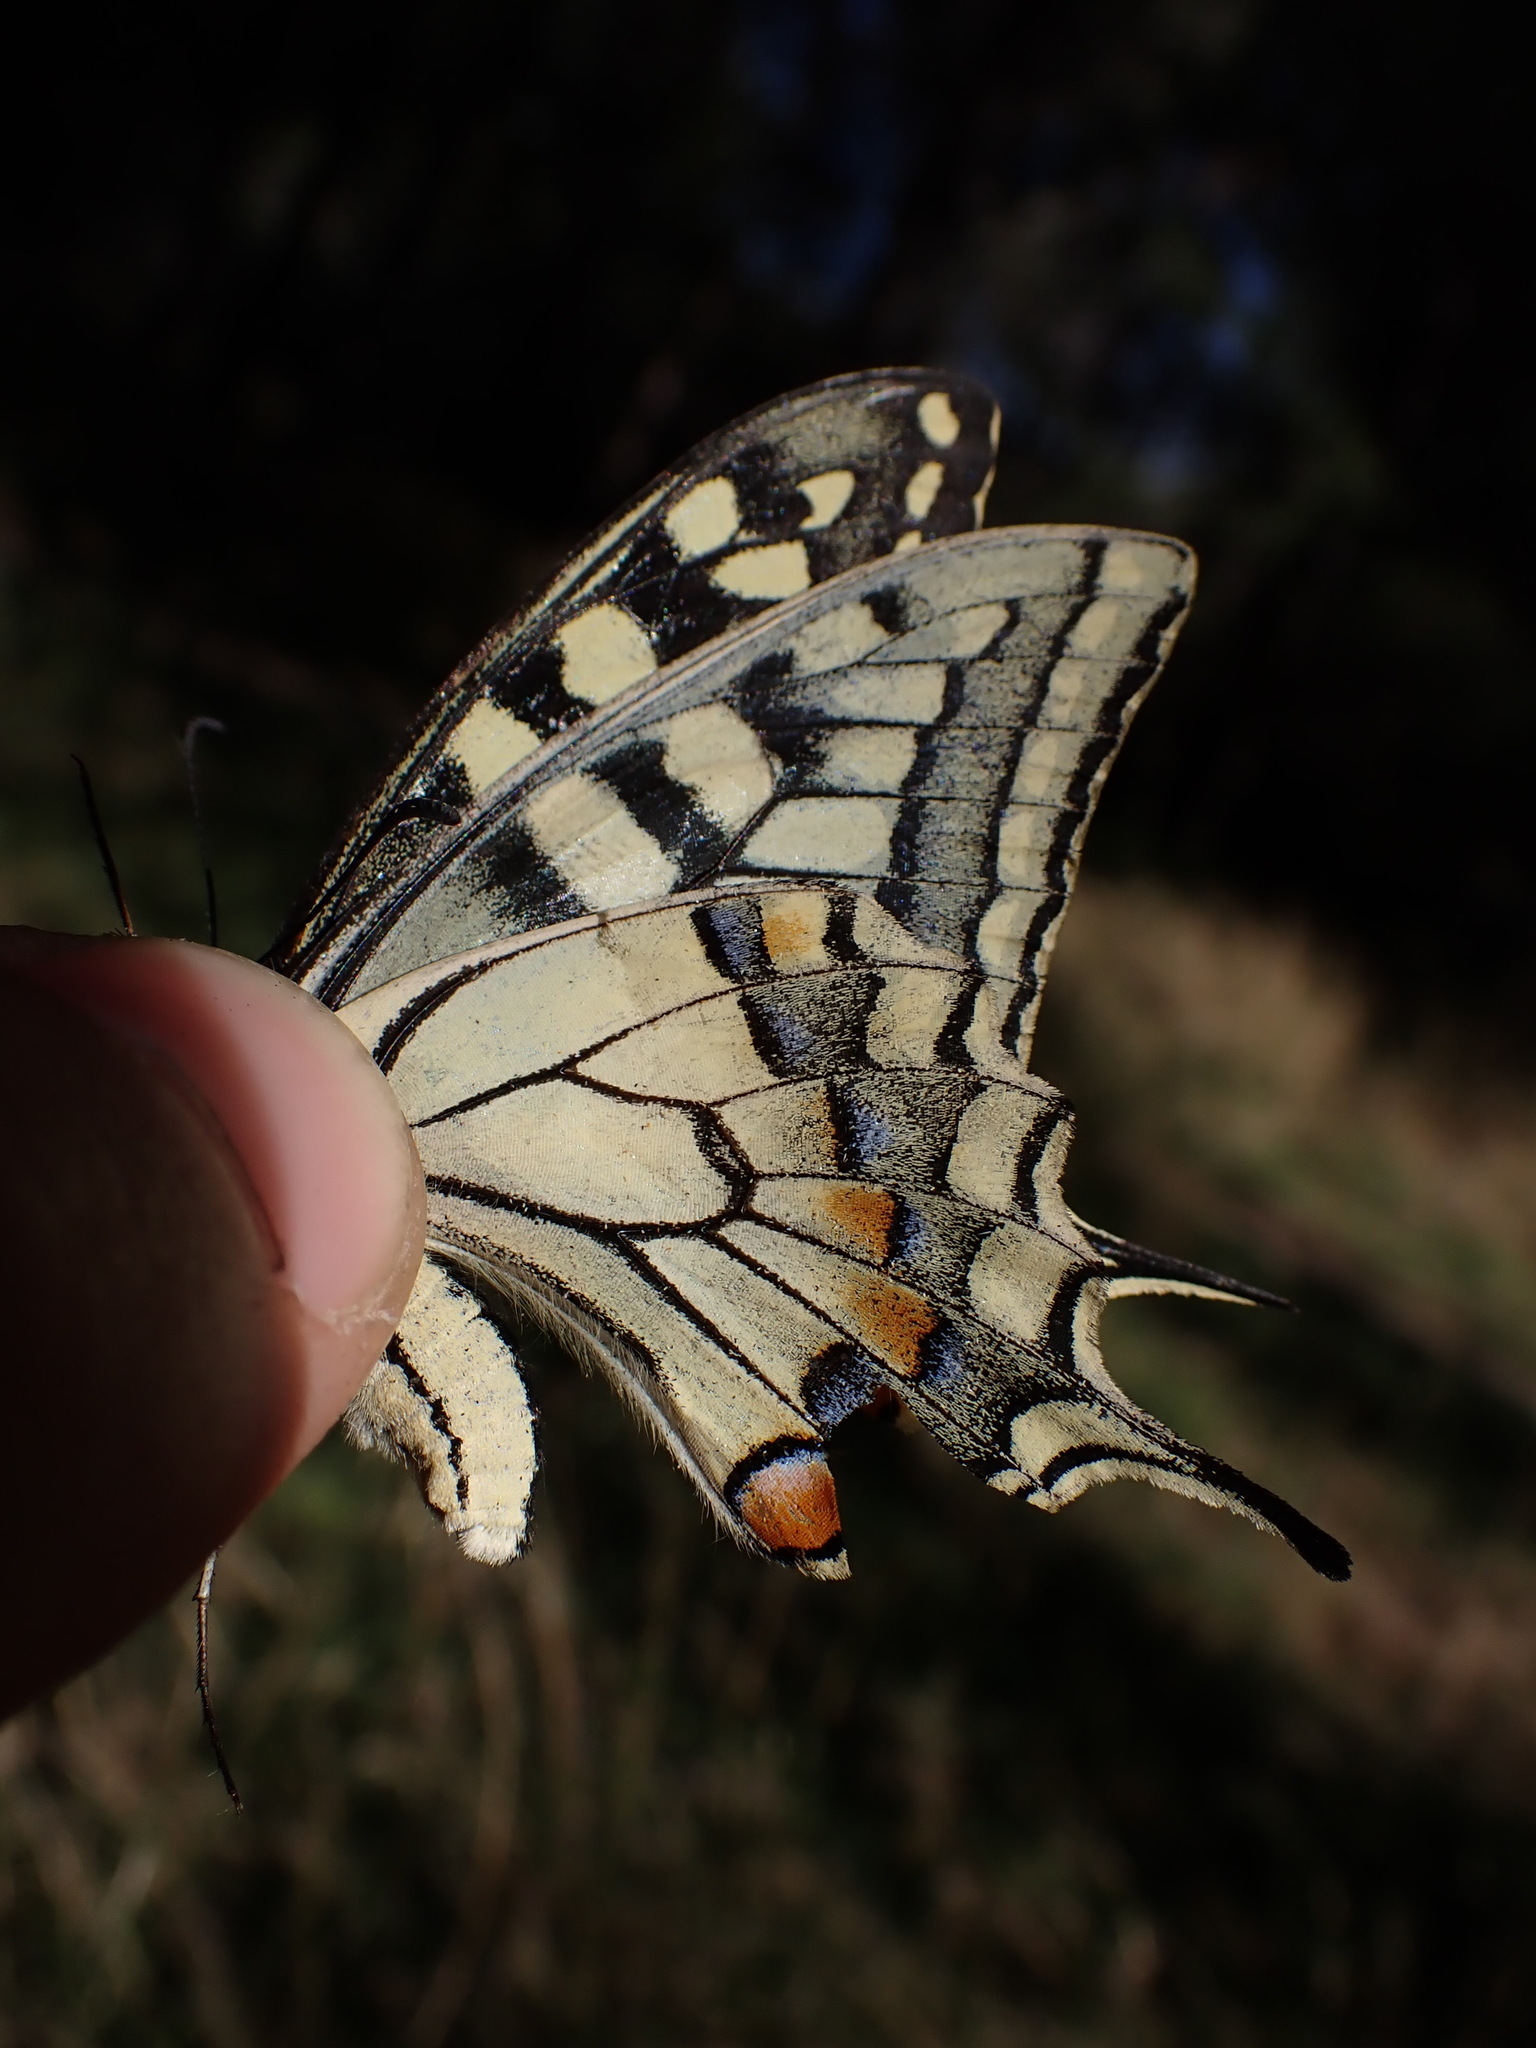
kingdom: Animalia
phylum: Arthropoda
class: Insecta
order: Lepidoptera
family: Papilionidae
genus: Papilio
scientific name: Papilio machaon
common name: Swallowtail
